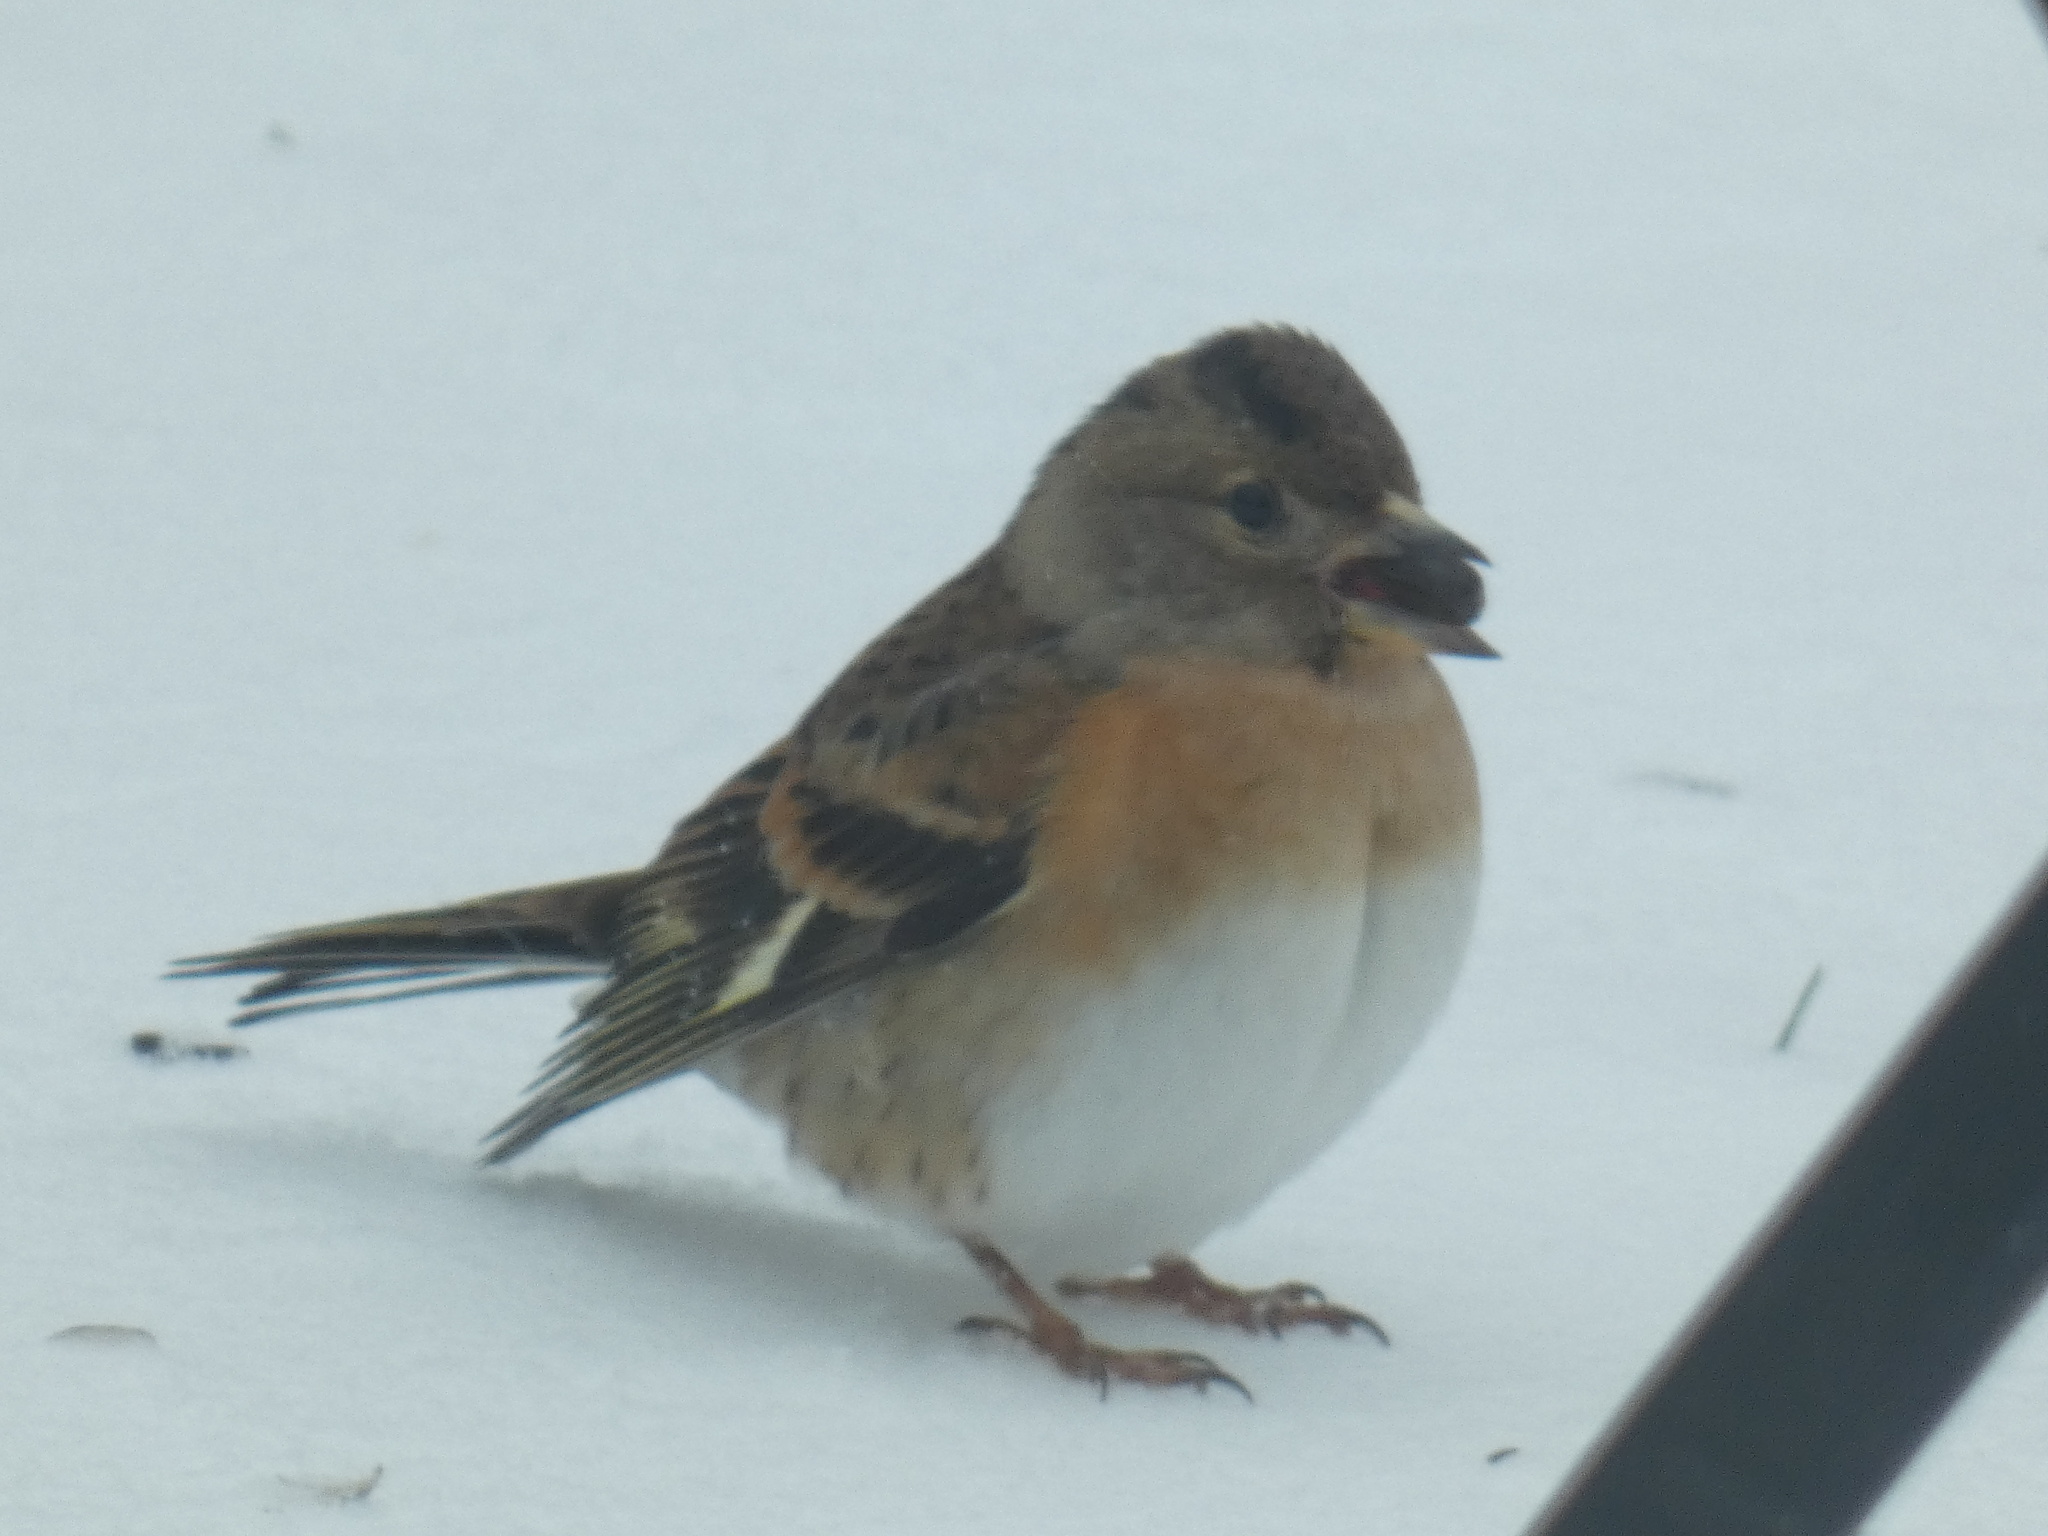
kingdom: Animalia
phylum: Chordata
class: Aves
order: Passeriformes
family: Fringillidae
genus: Fringilla
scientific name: Fringilla montifringilla
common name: Brambling
